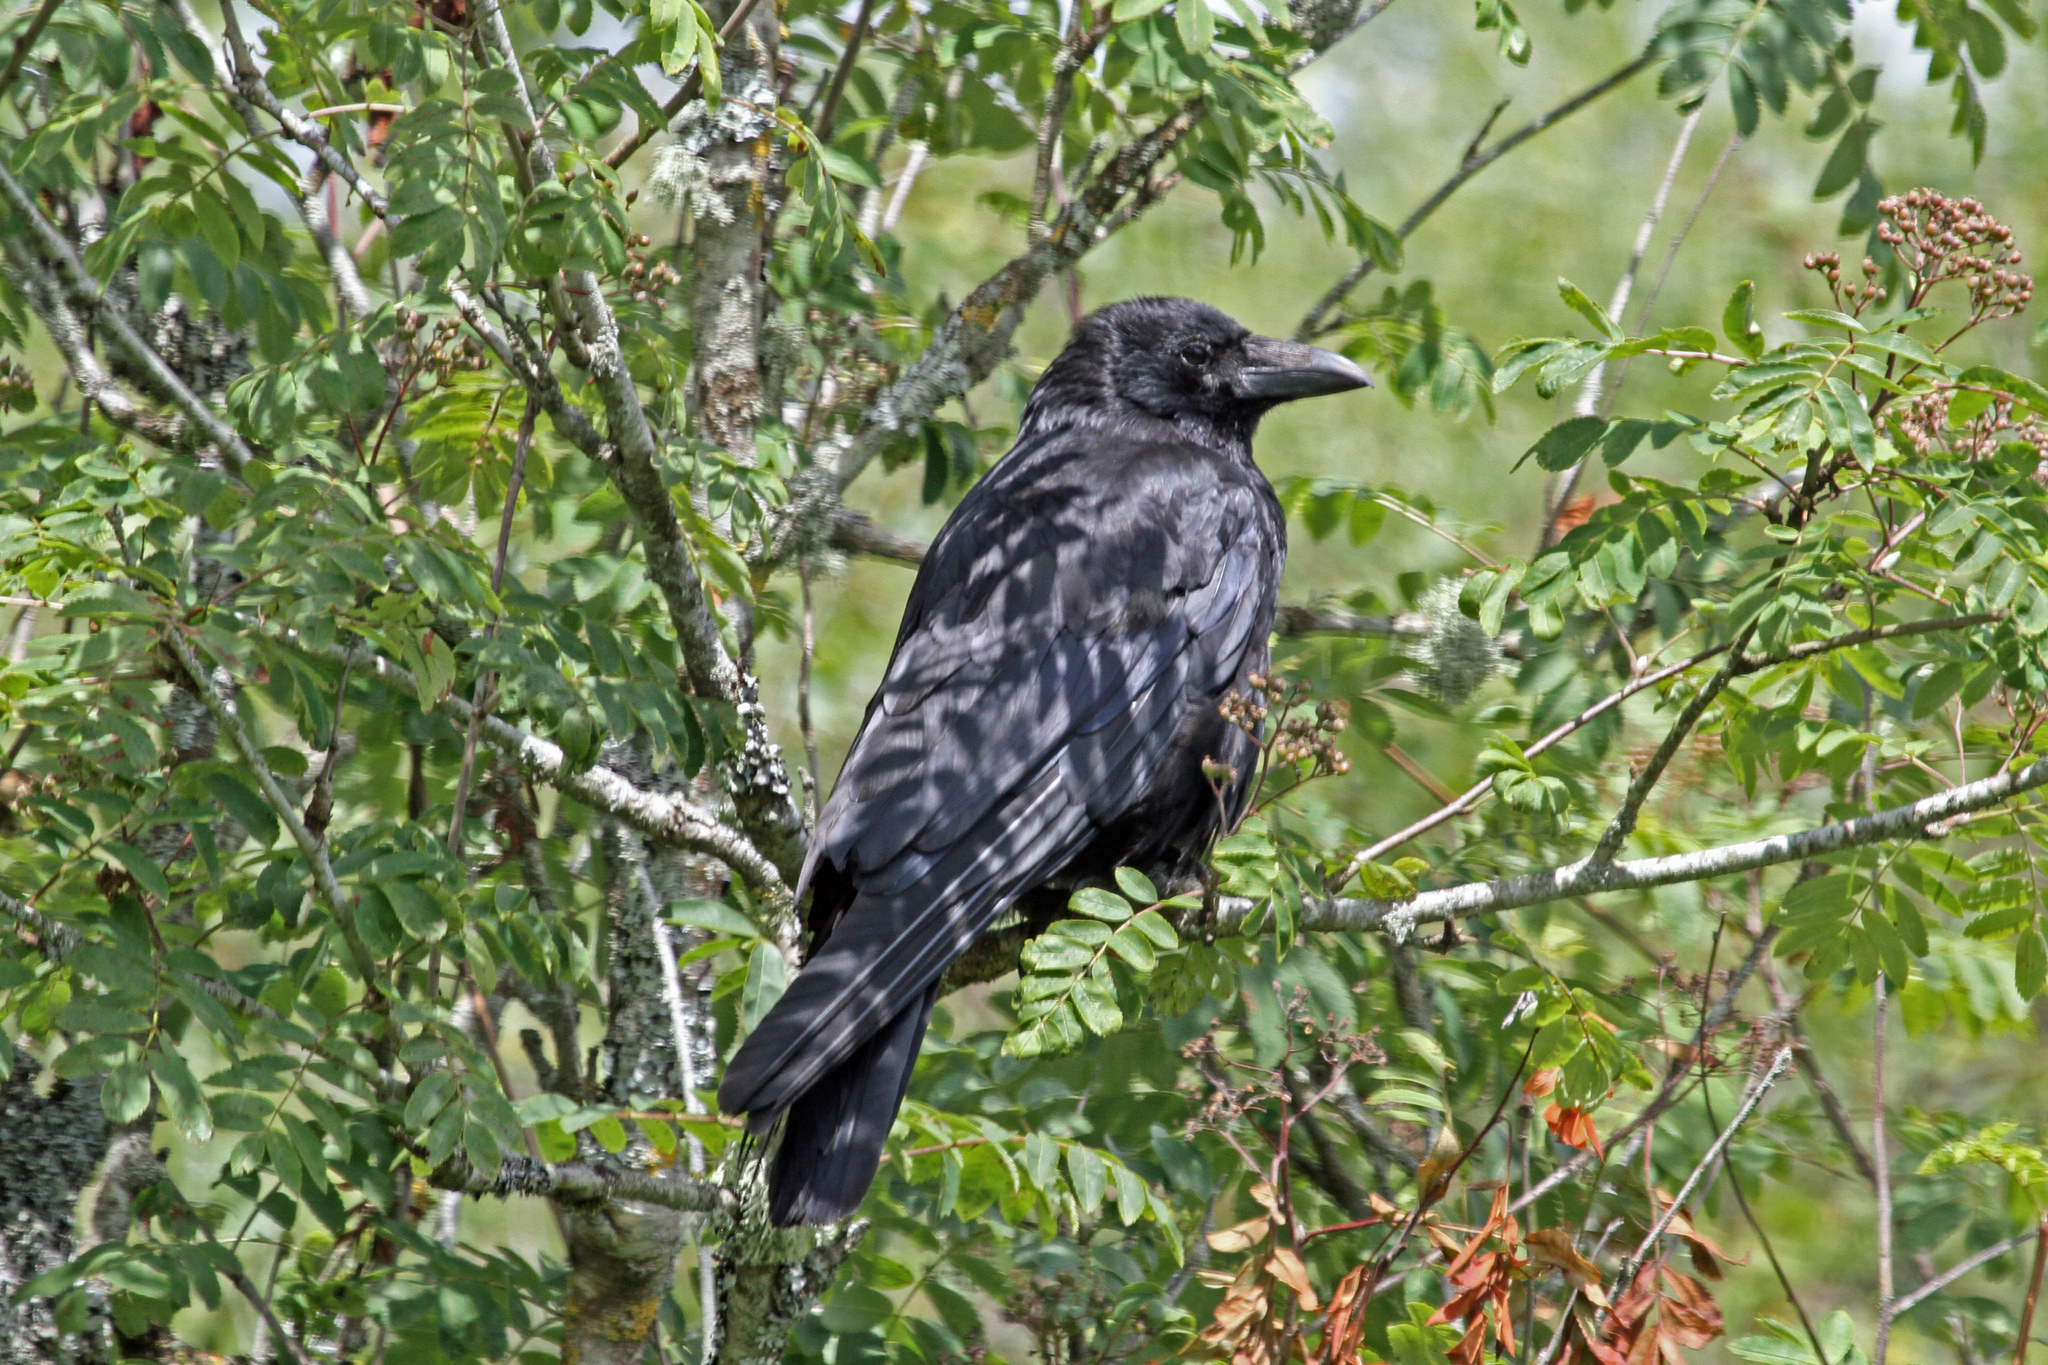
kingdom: Animalia
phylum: Chordata
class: Aves
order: Passeriformes
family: Corvidae
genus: Corvus
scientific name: Corvus corax
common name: Common raven
